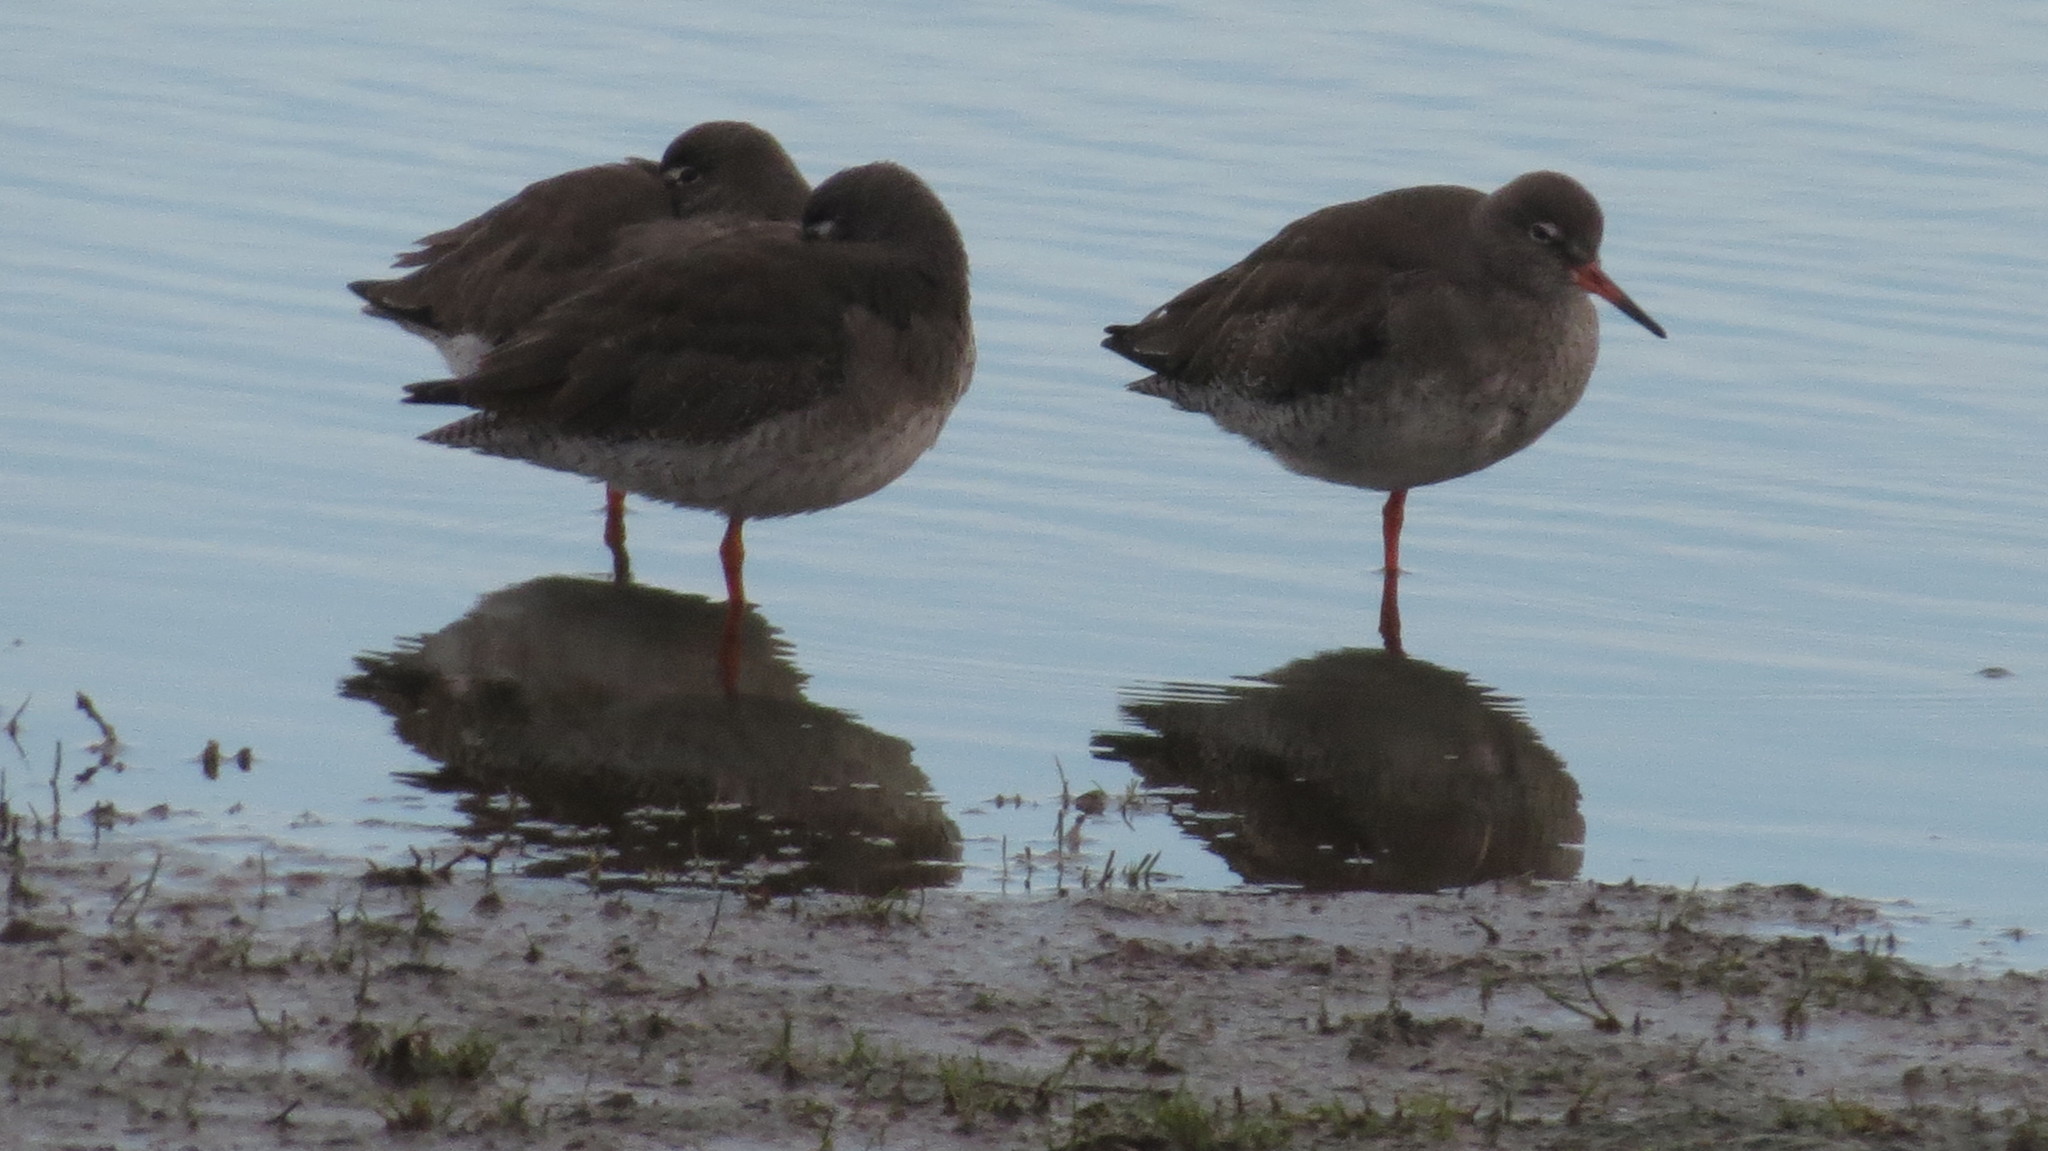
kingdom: Animalia
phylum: Chordata
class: Aves
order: Charadriiformes
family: Scolopacidae
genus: Tringa
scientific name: Tringa totanus
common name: Common redshank
